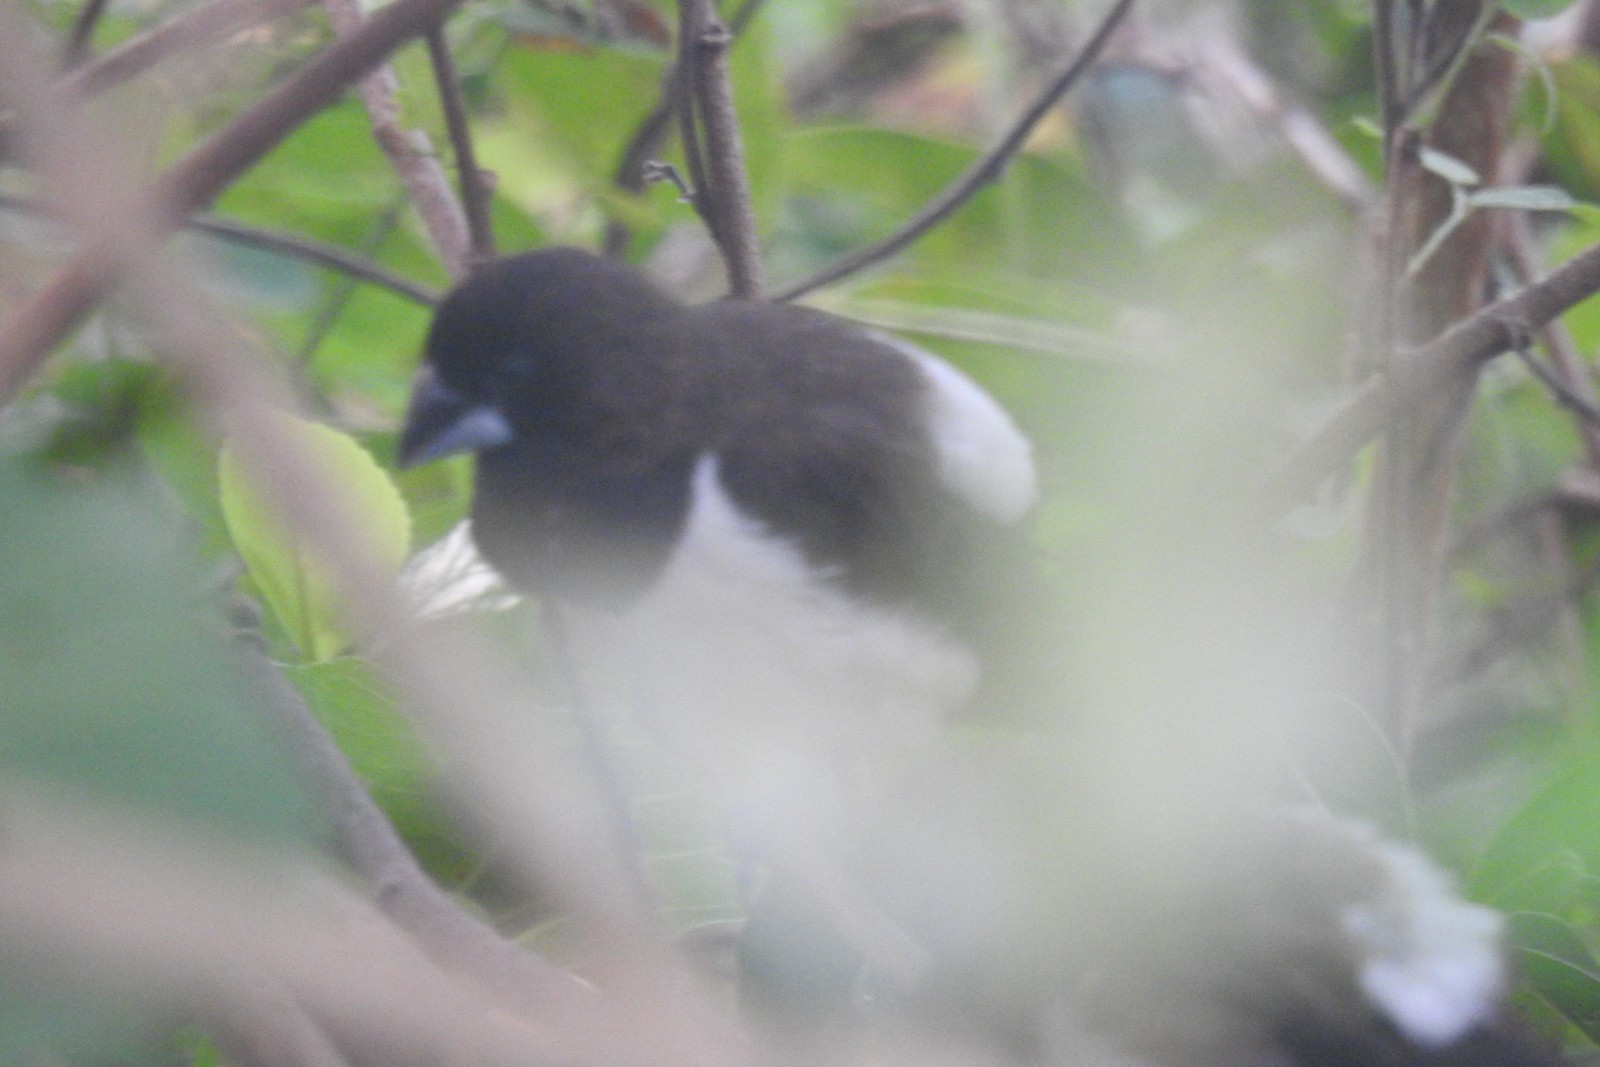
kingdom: Animalia
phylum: Chordata
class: Aves
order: Passeriformes
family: Estrildidae
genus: Lonchura
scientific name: Lonchura striata
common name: White-rumped munia
